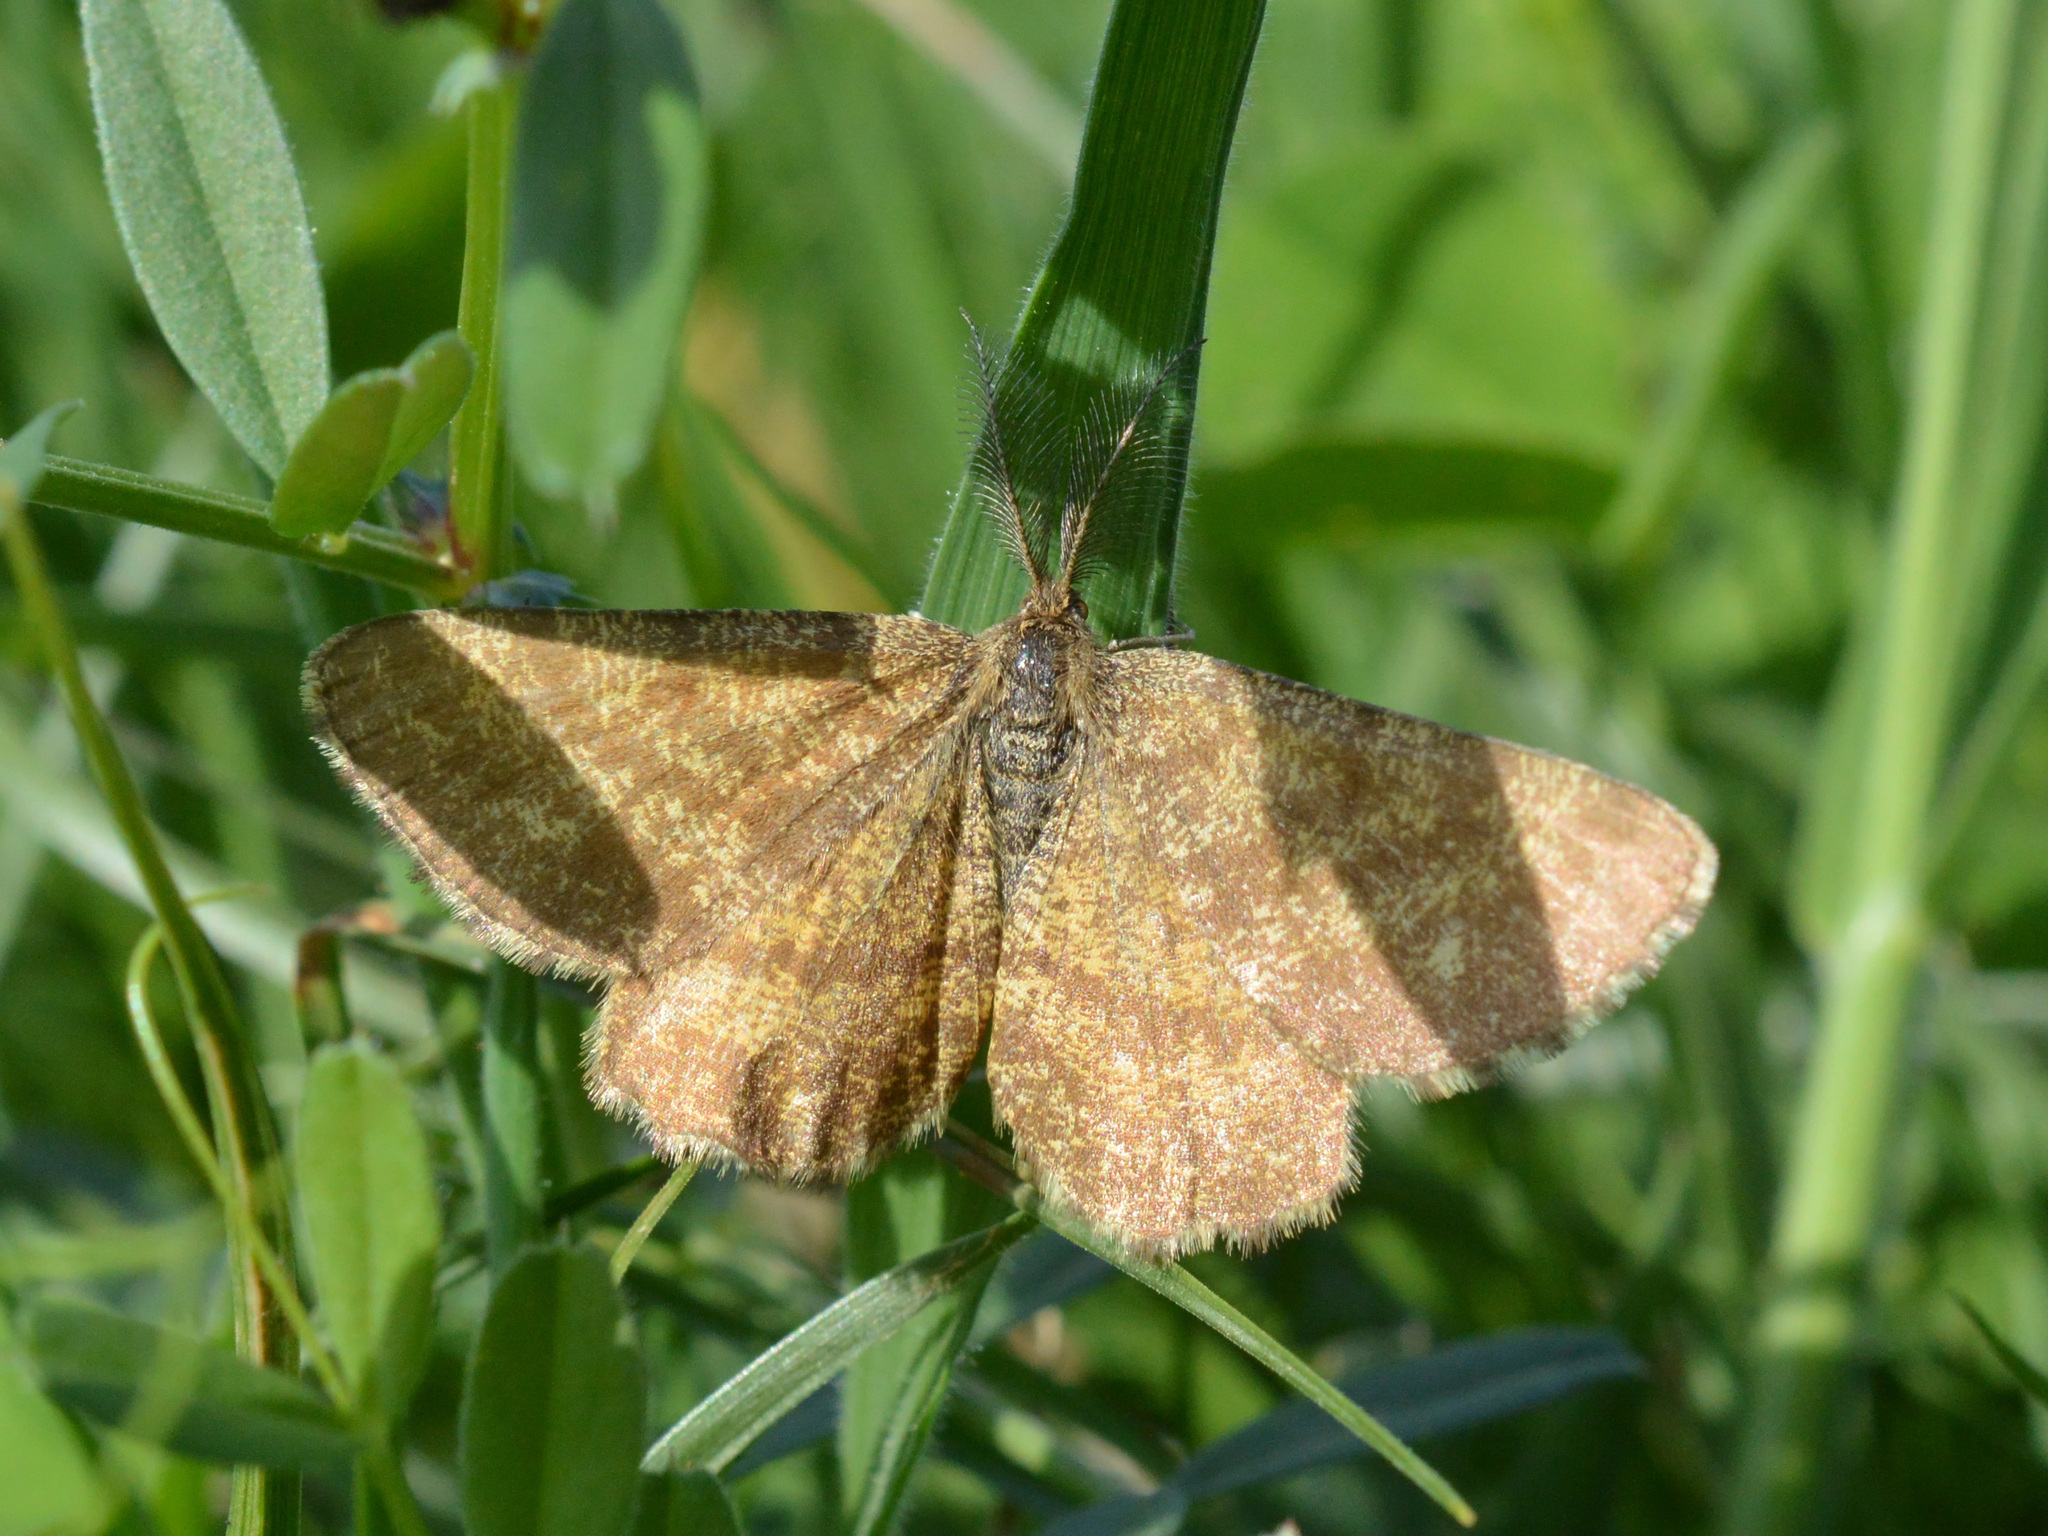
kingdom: Animalia
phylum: Arthropoda
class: Insecta
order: Lepidoptera
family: Geometridae
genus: Ematurga
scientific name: Ematurga atomaria
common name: Common heath
